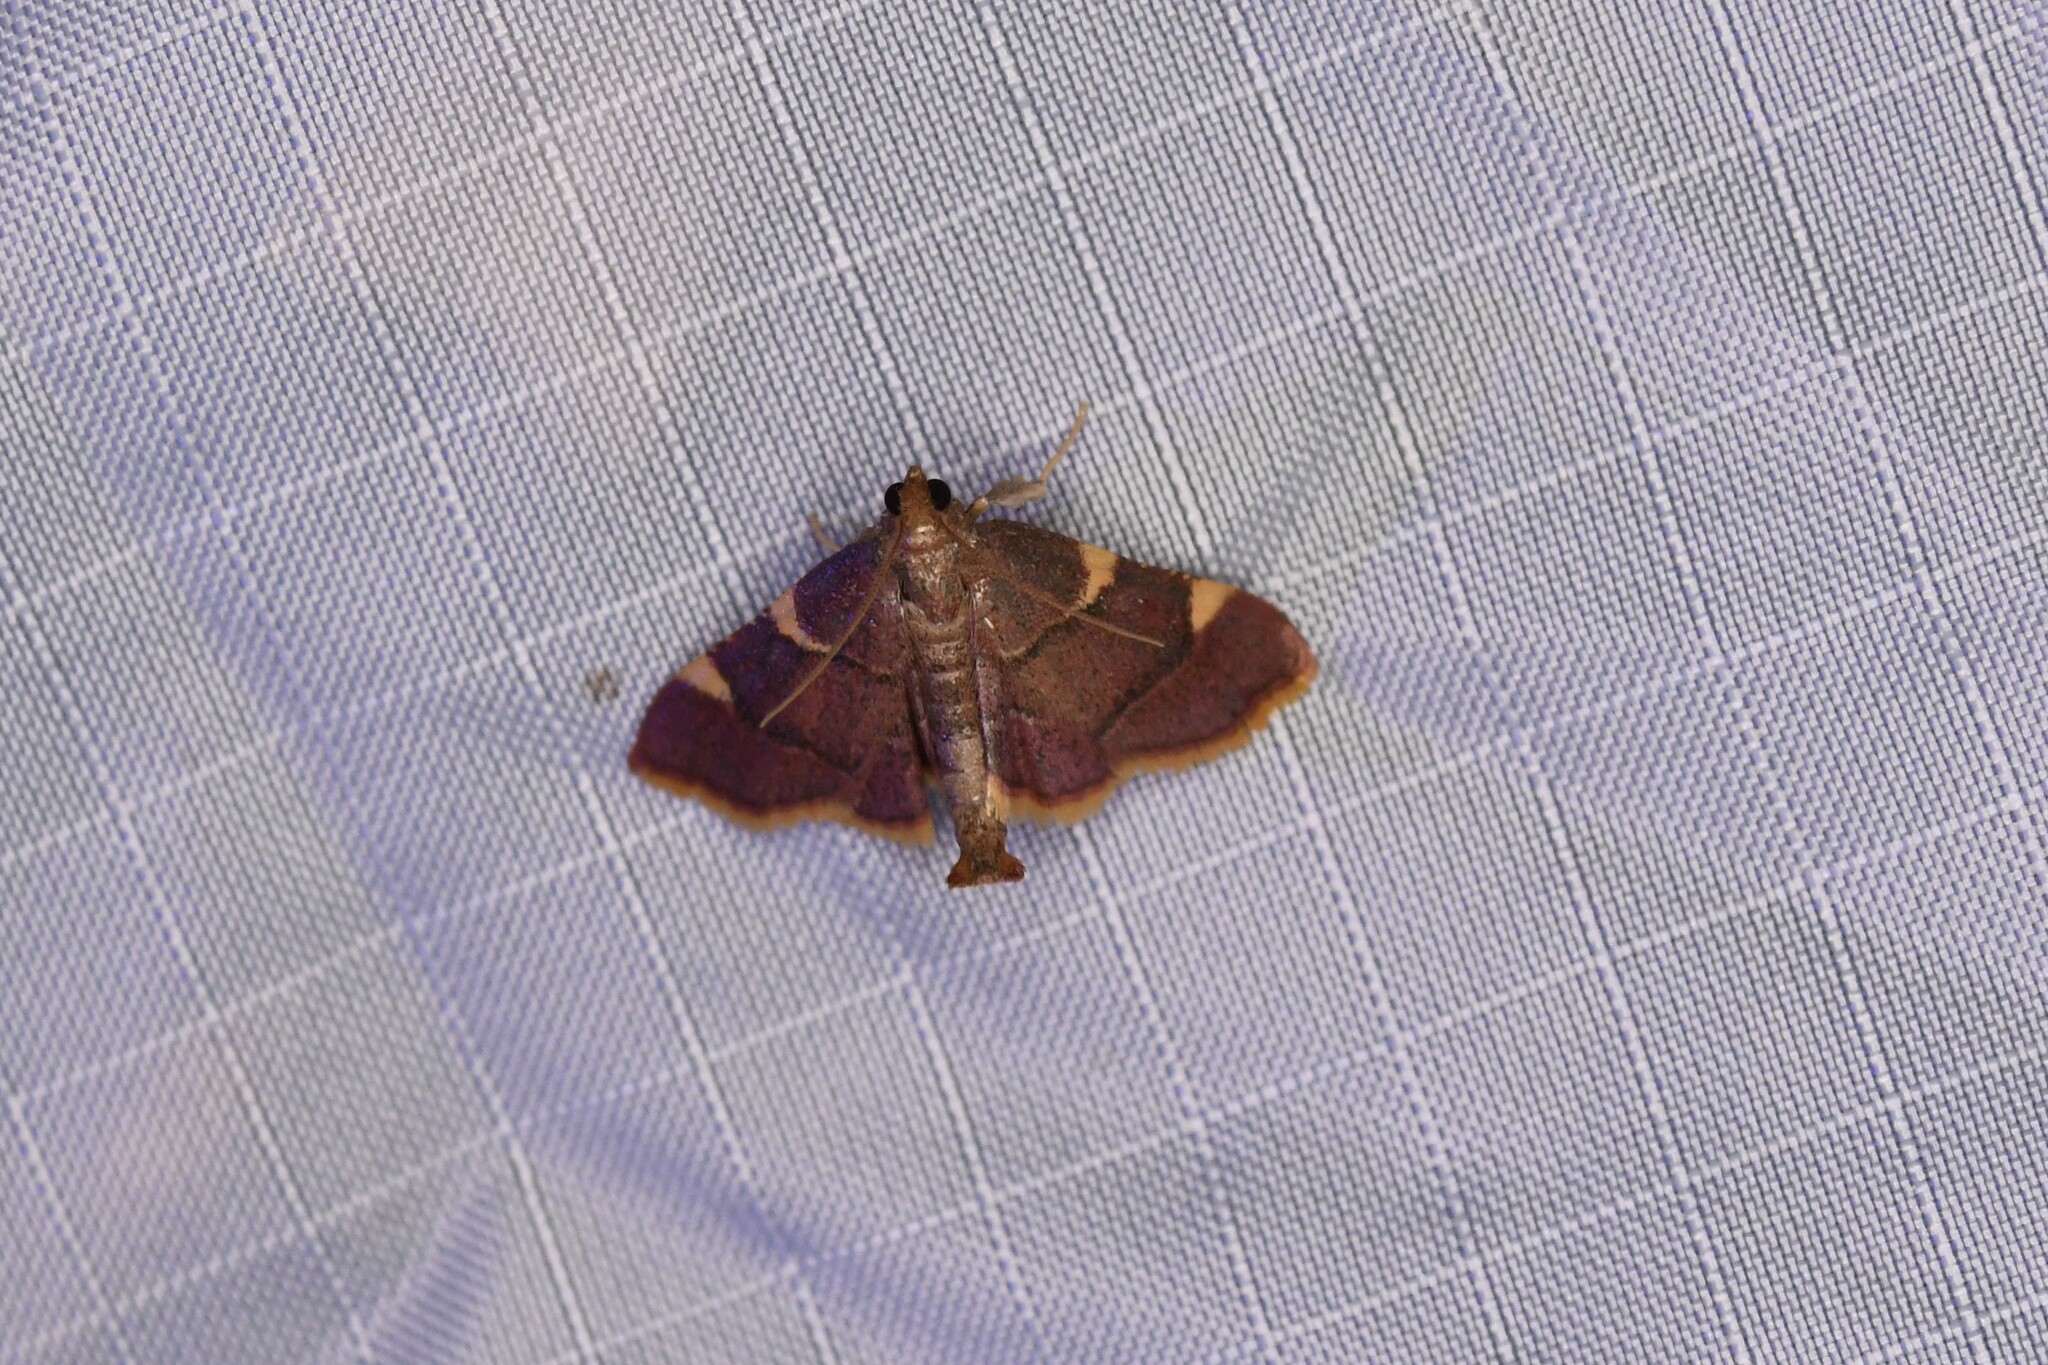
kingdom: Animalia
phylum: Arthropoda
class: Insecta
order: Lepidoptera
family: Pyralidae
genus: Hypsopygia
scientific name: Hypsopygia olinalis
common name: Yellow-fringed dolichomia moth
